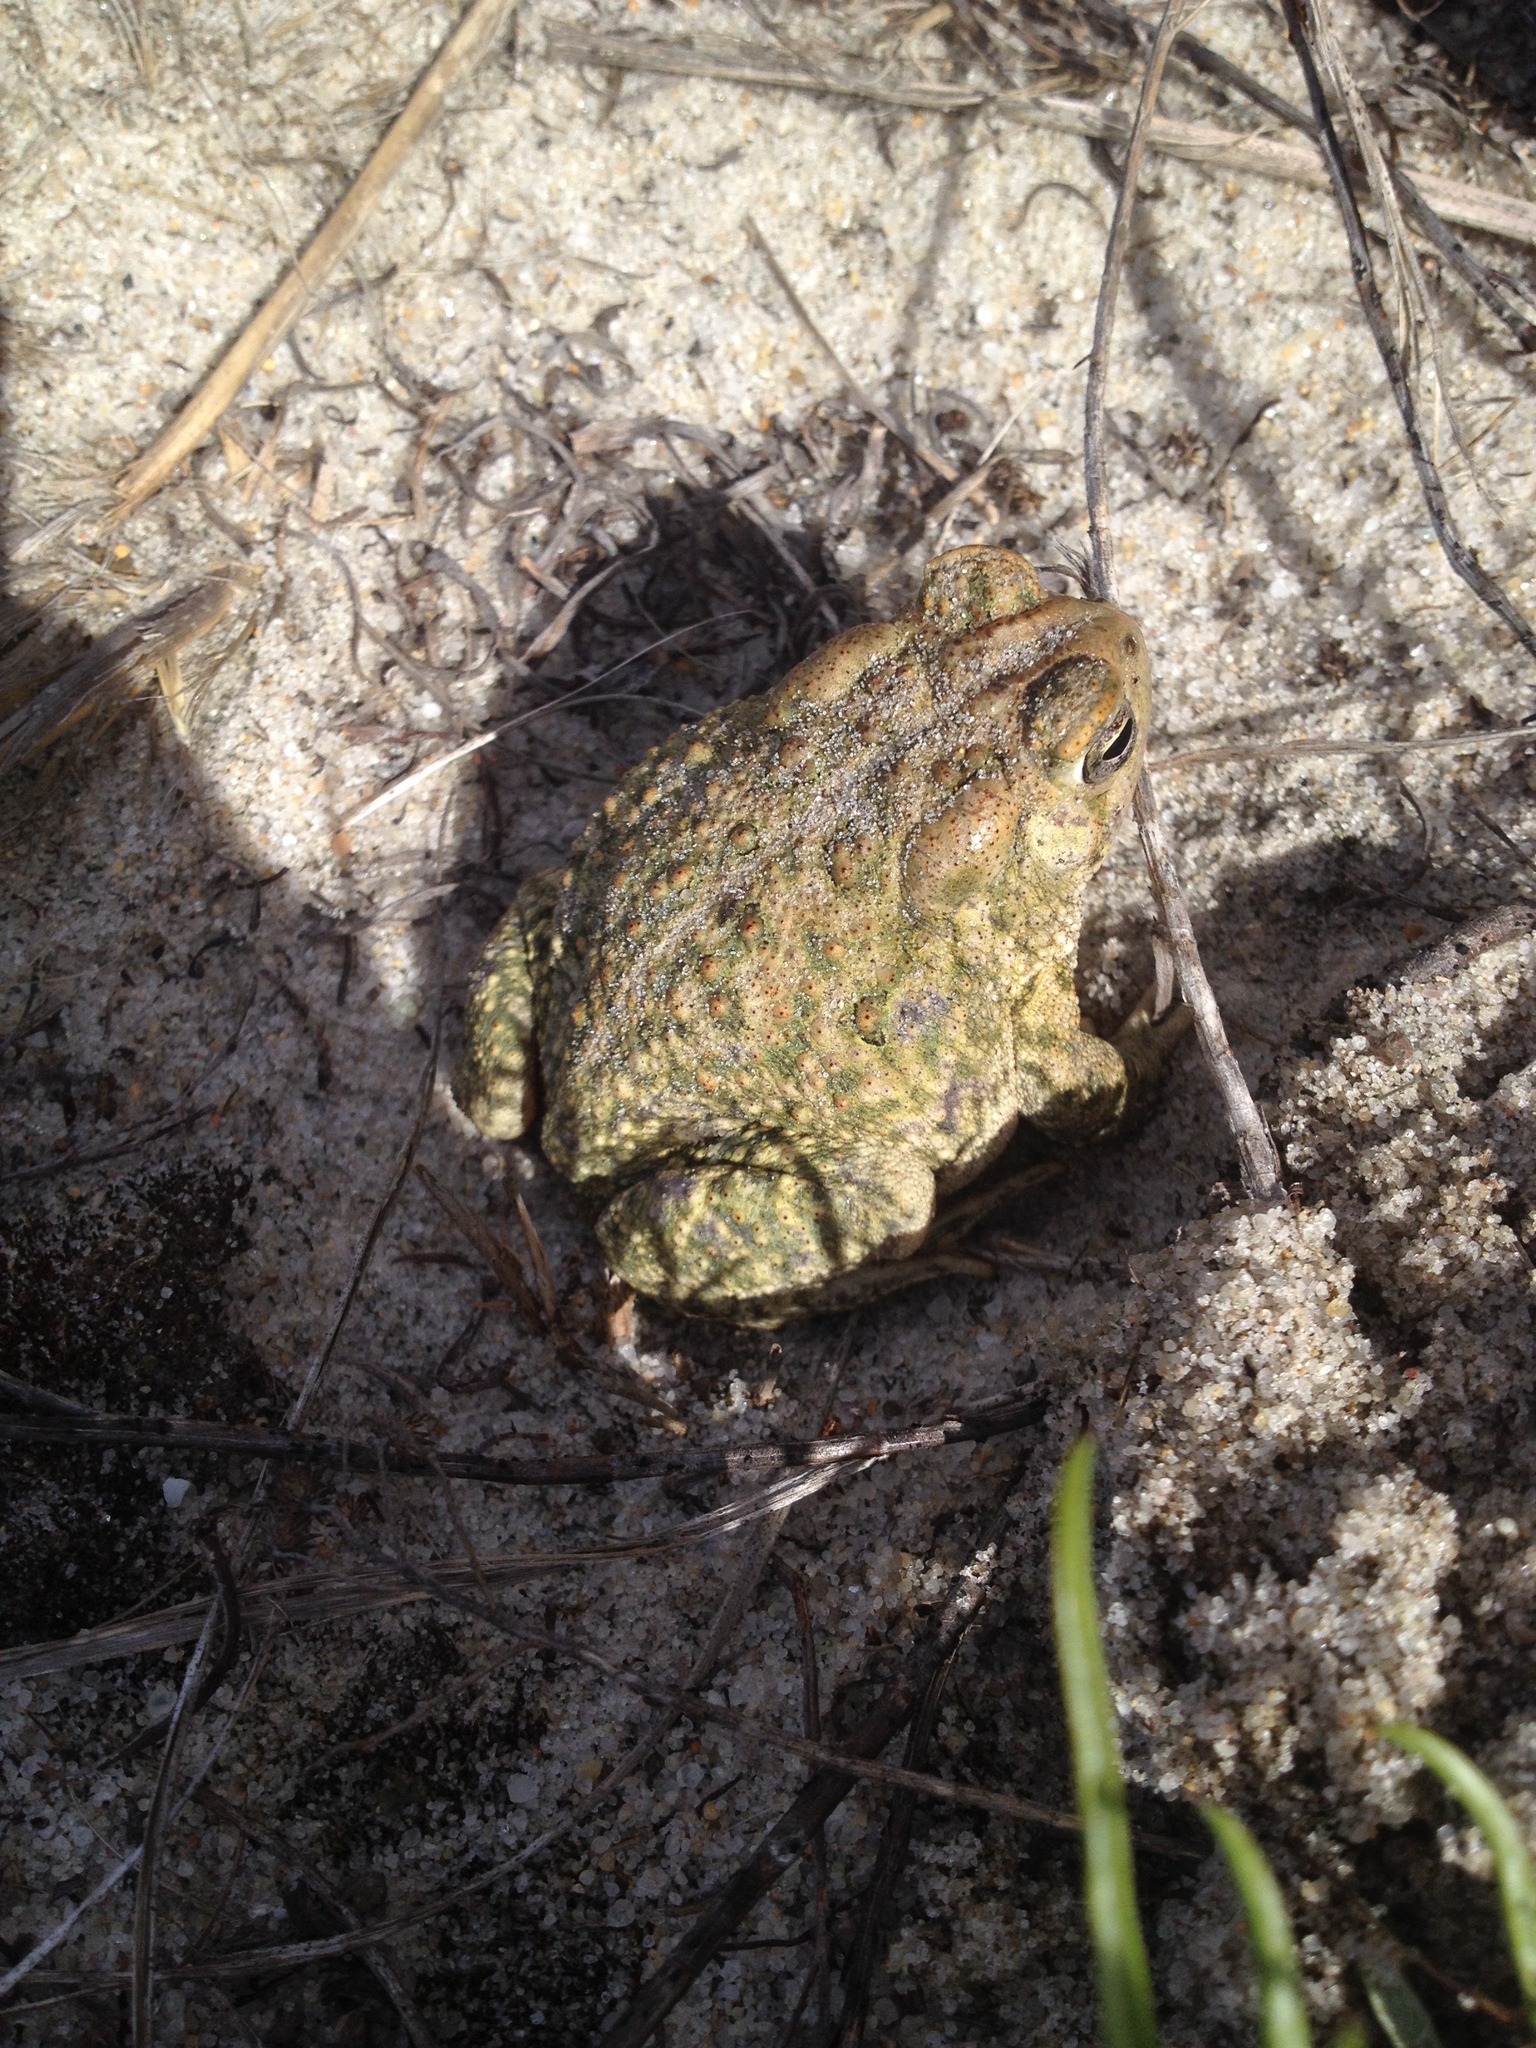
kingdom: Animalia
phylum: Chordata
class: Amphibia
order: Anura
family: Bufonidae
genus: Anaxyrus
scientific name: Anaxyrus fowleri
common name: Fowler's toad
